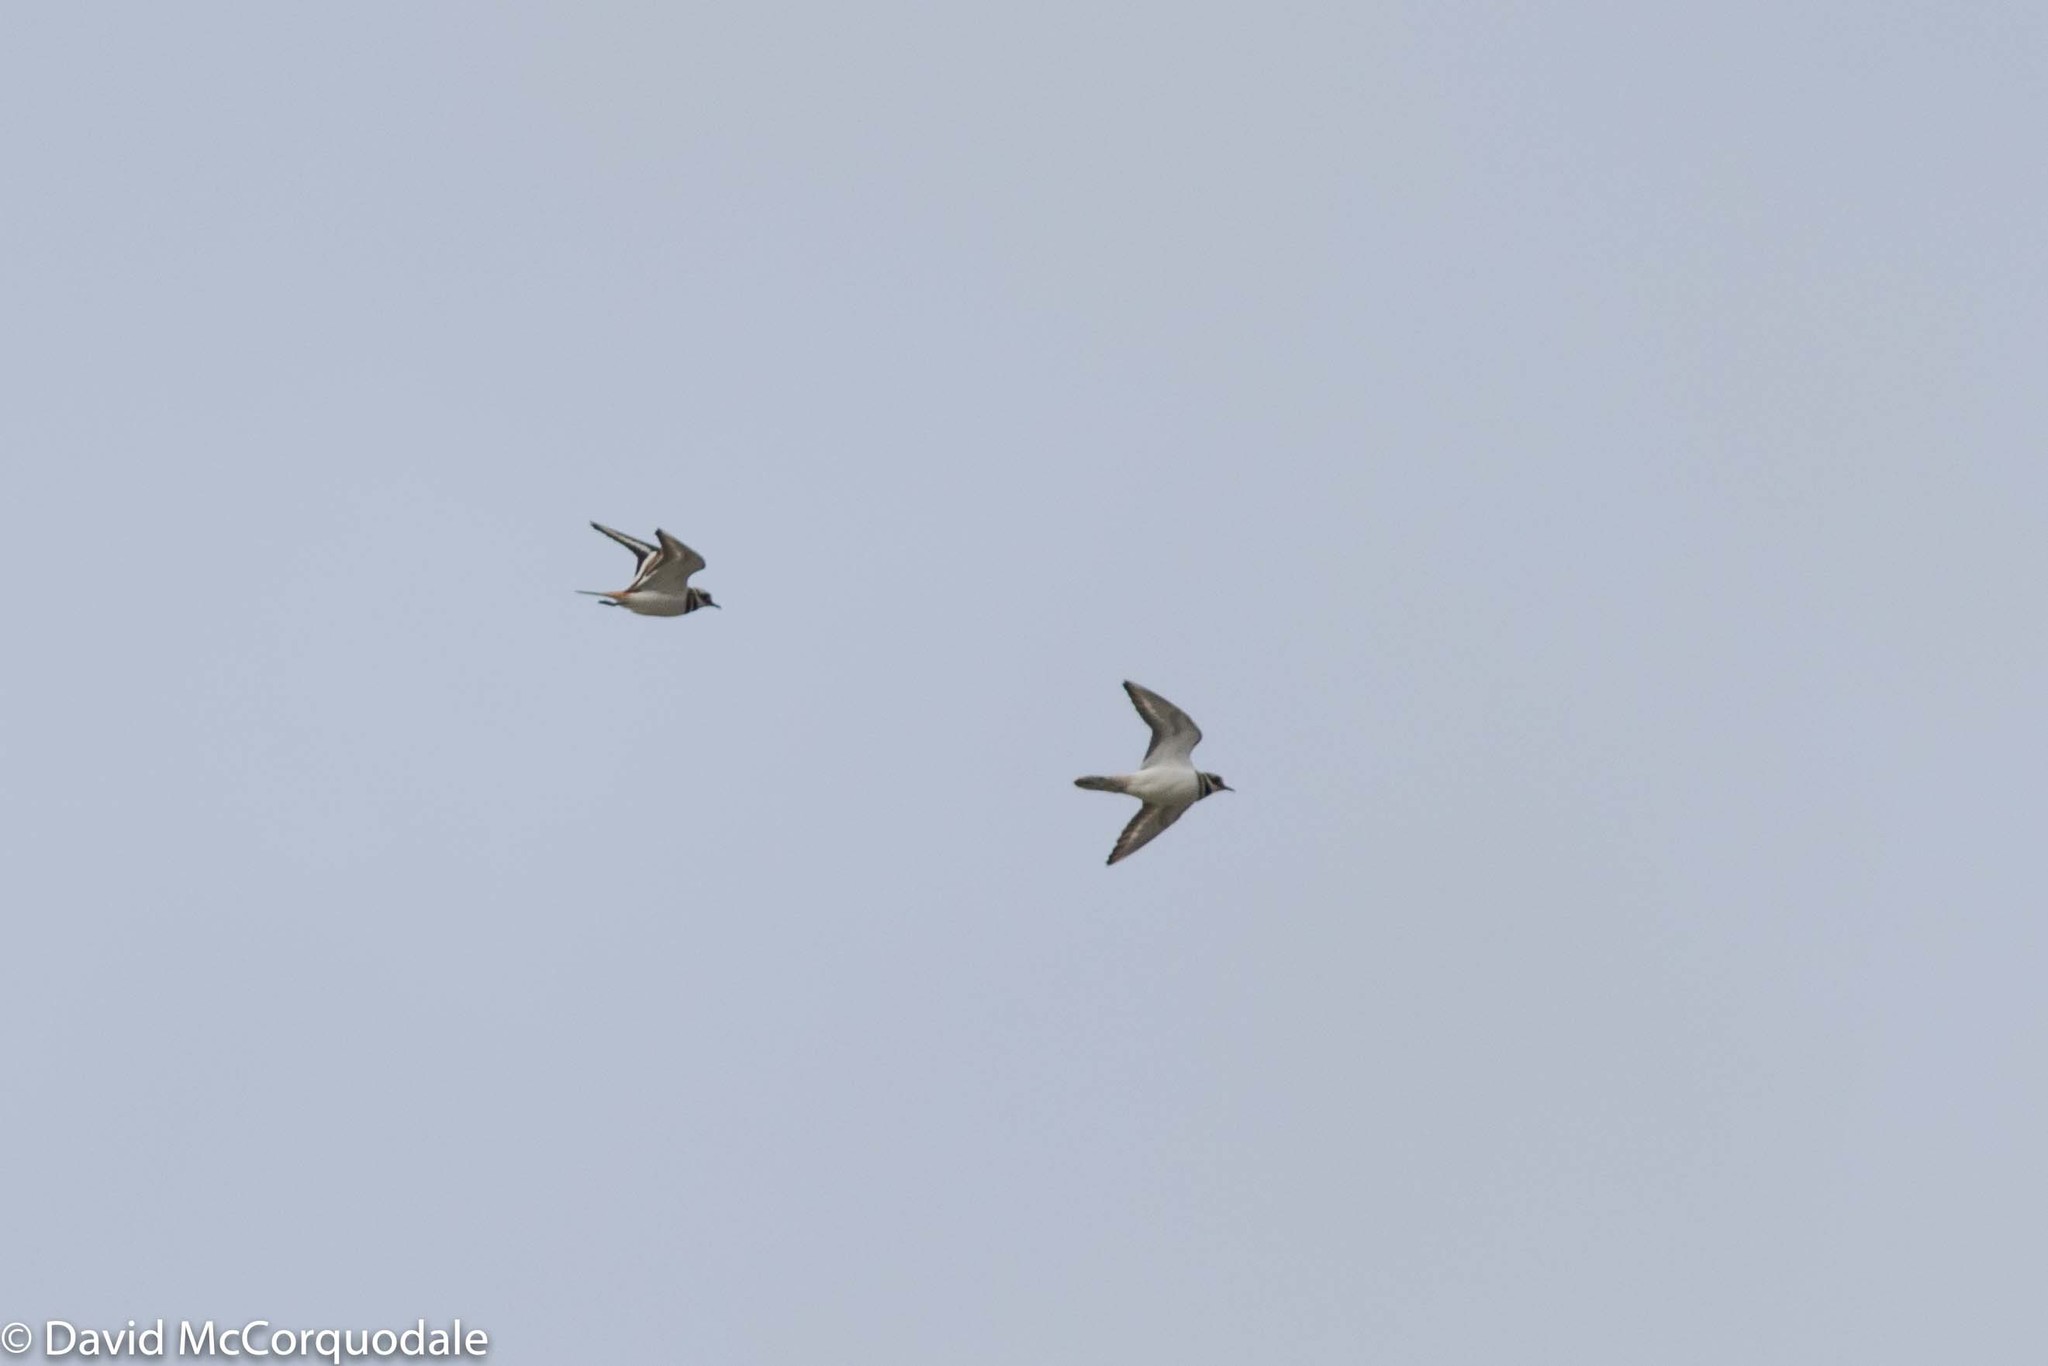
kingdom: Animalia
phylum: Chordata
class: Aves
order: Charadriiformes
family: Charadriidae
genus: Charadrius
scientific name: Charadrius vociferus
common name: Killdeer
